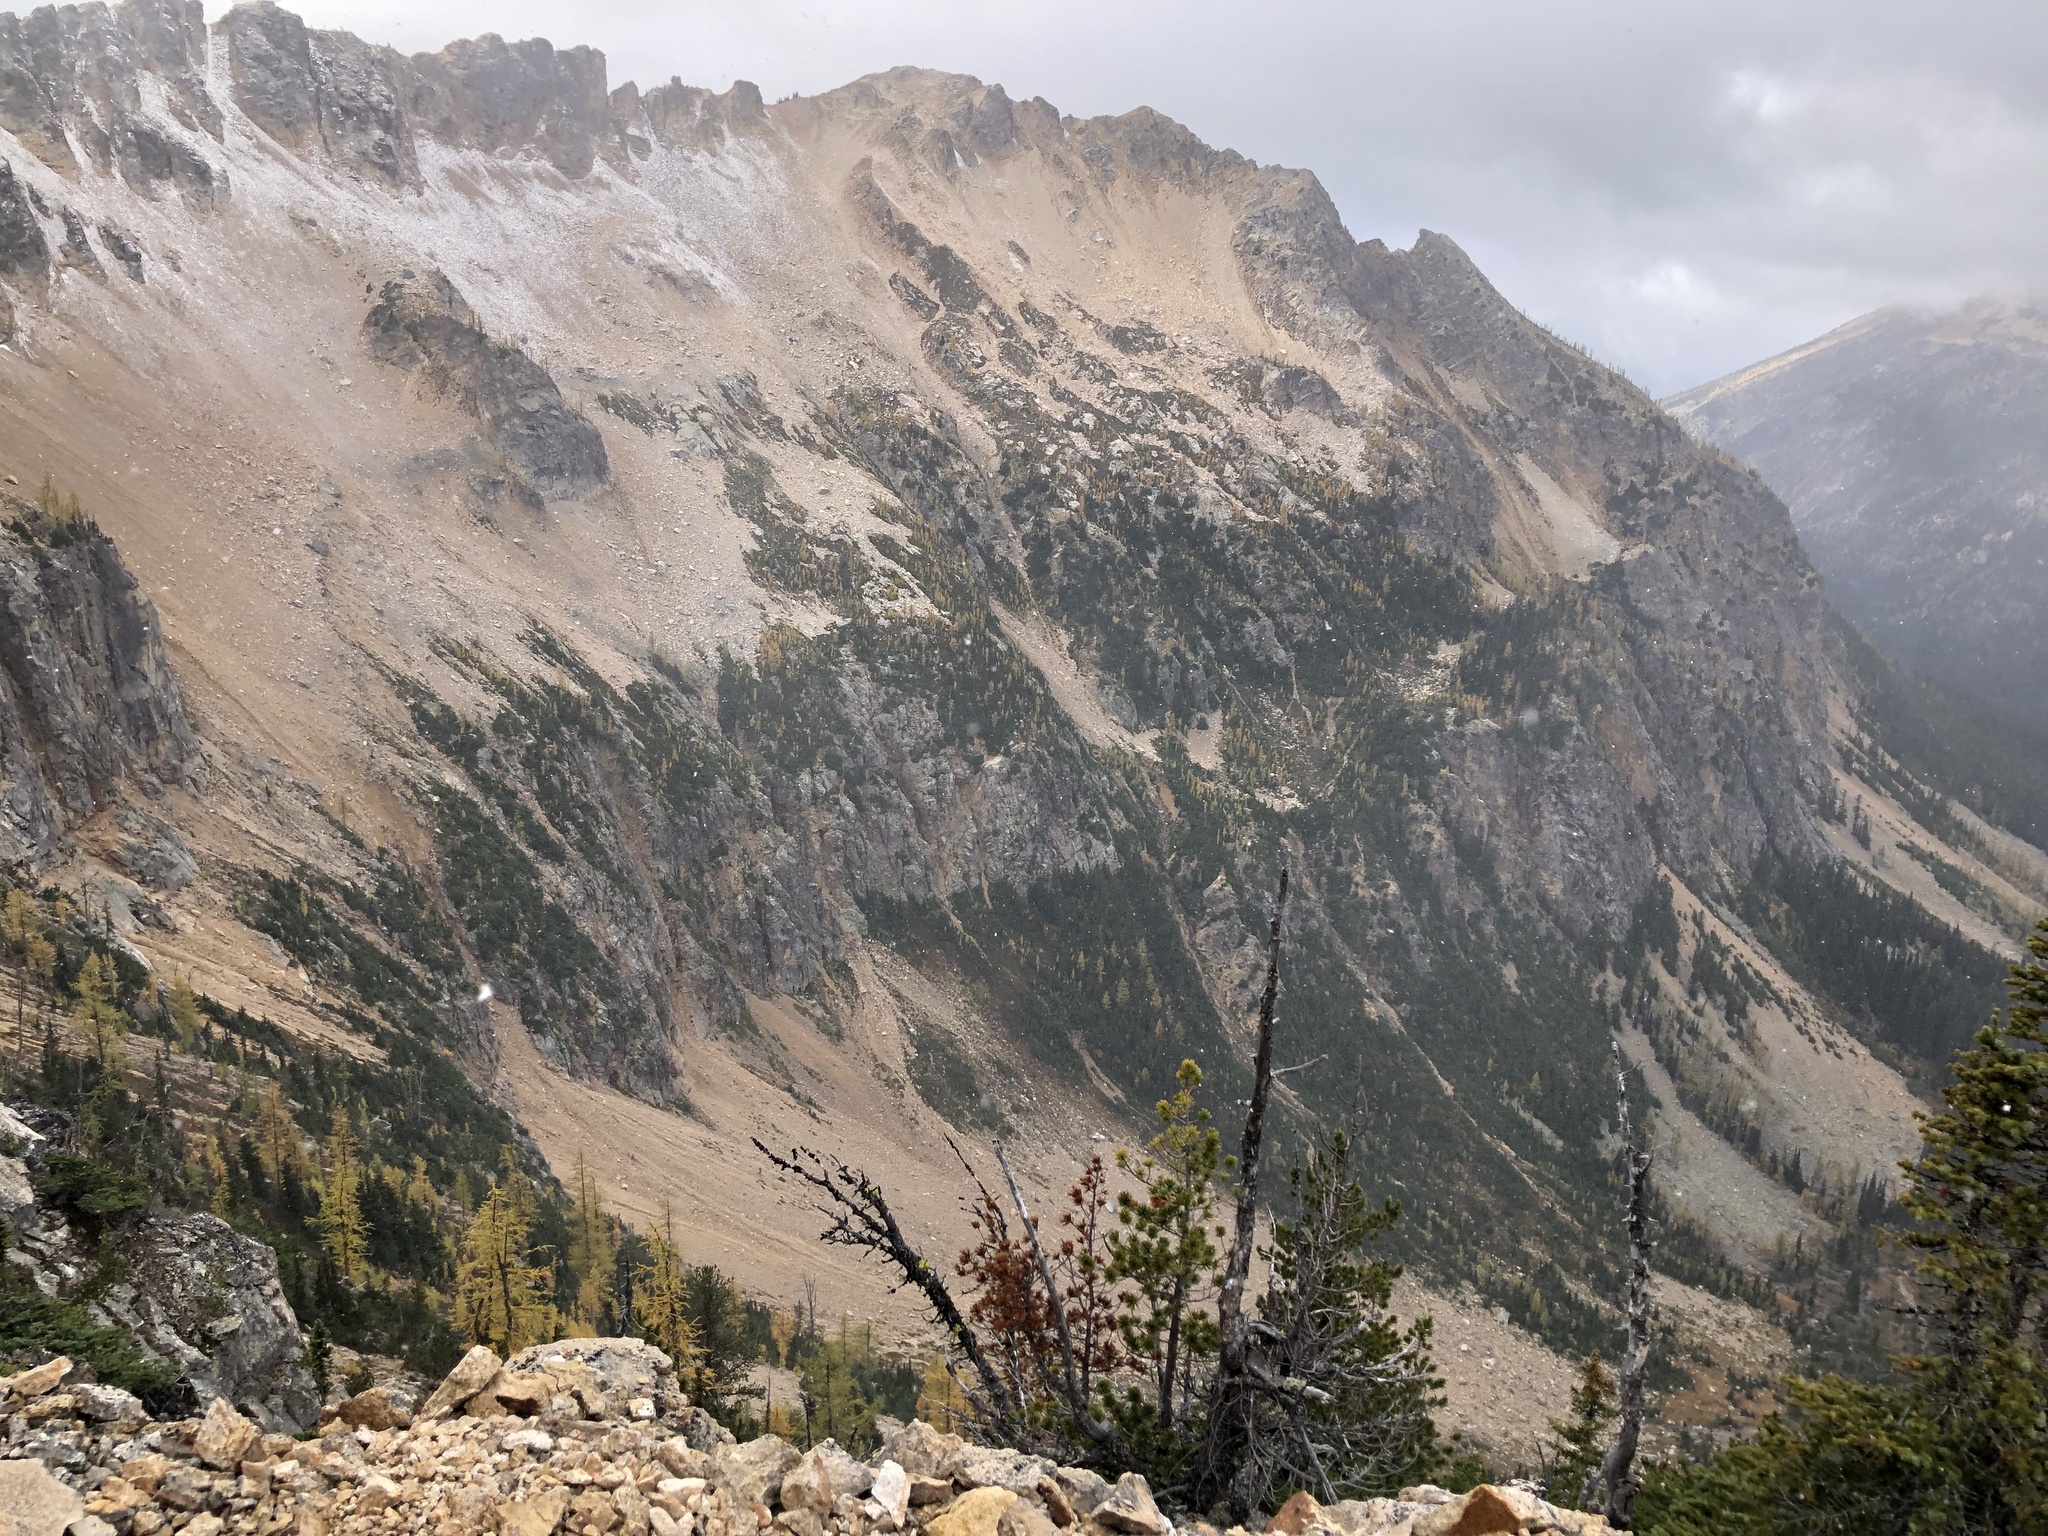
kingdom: Plantae
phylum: Tracheophyta
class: Pinopsida
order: Pinales
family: Pinaceae
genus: Pinus
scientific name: Pinus albicaulis
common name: Whitebark pine
